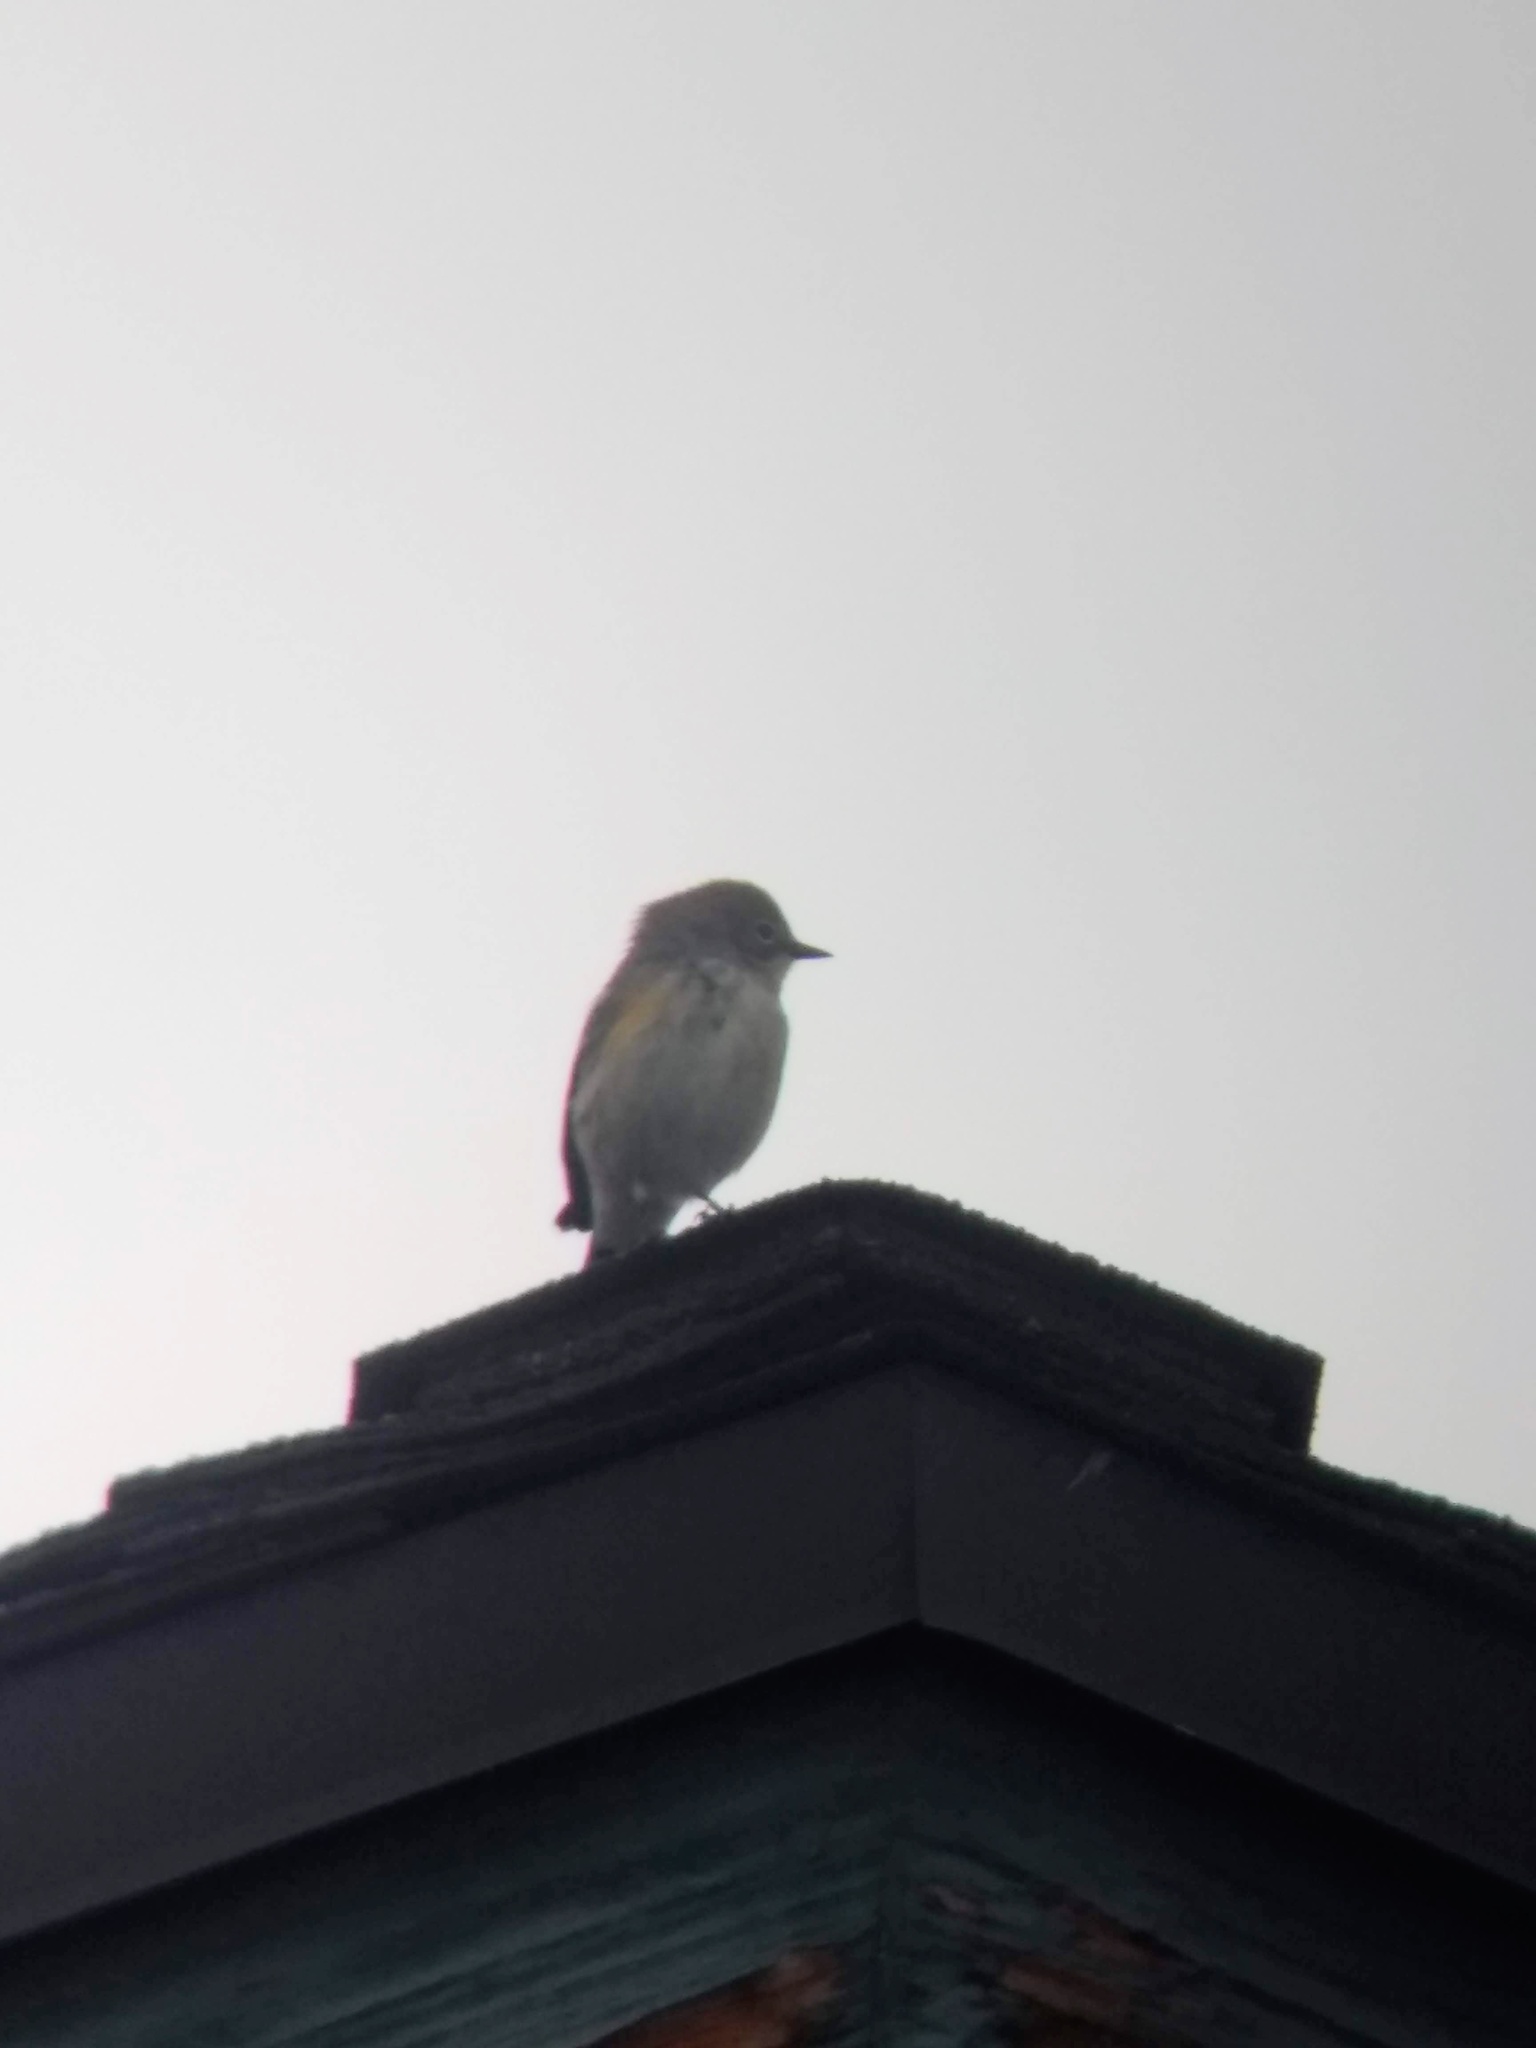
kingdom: Animalia
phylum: Chordata
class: Aves
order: Passeriformes
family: Parulidae
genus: Setophaga
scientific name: Setophaga coronata
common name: Myrtle warbler
